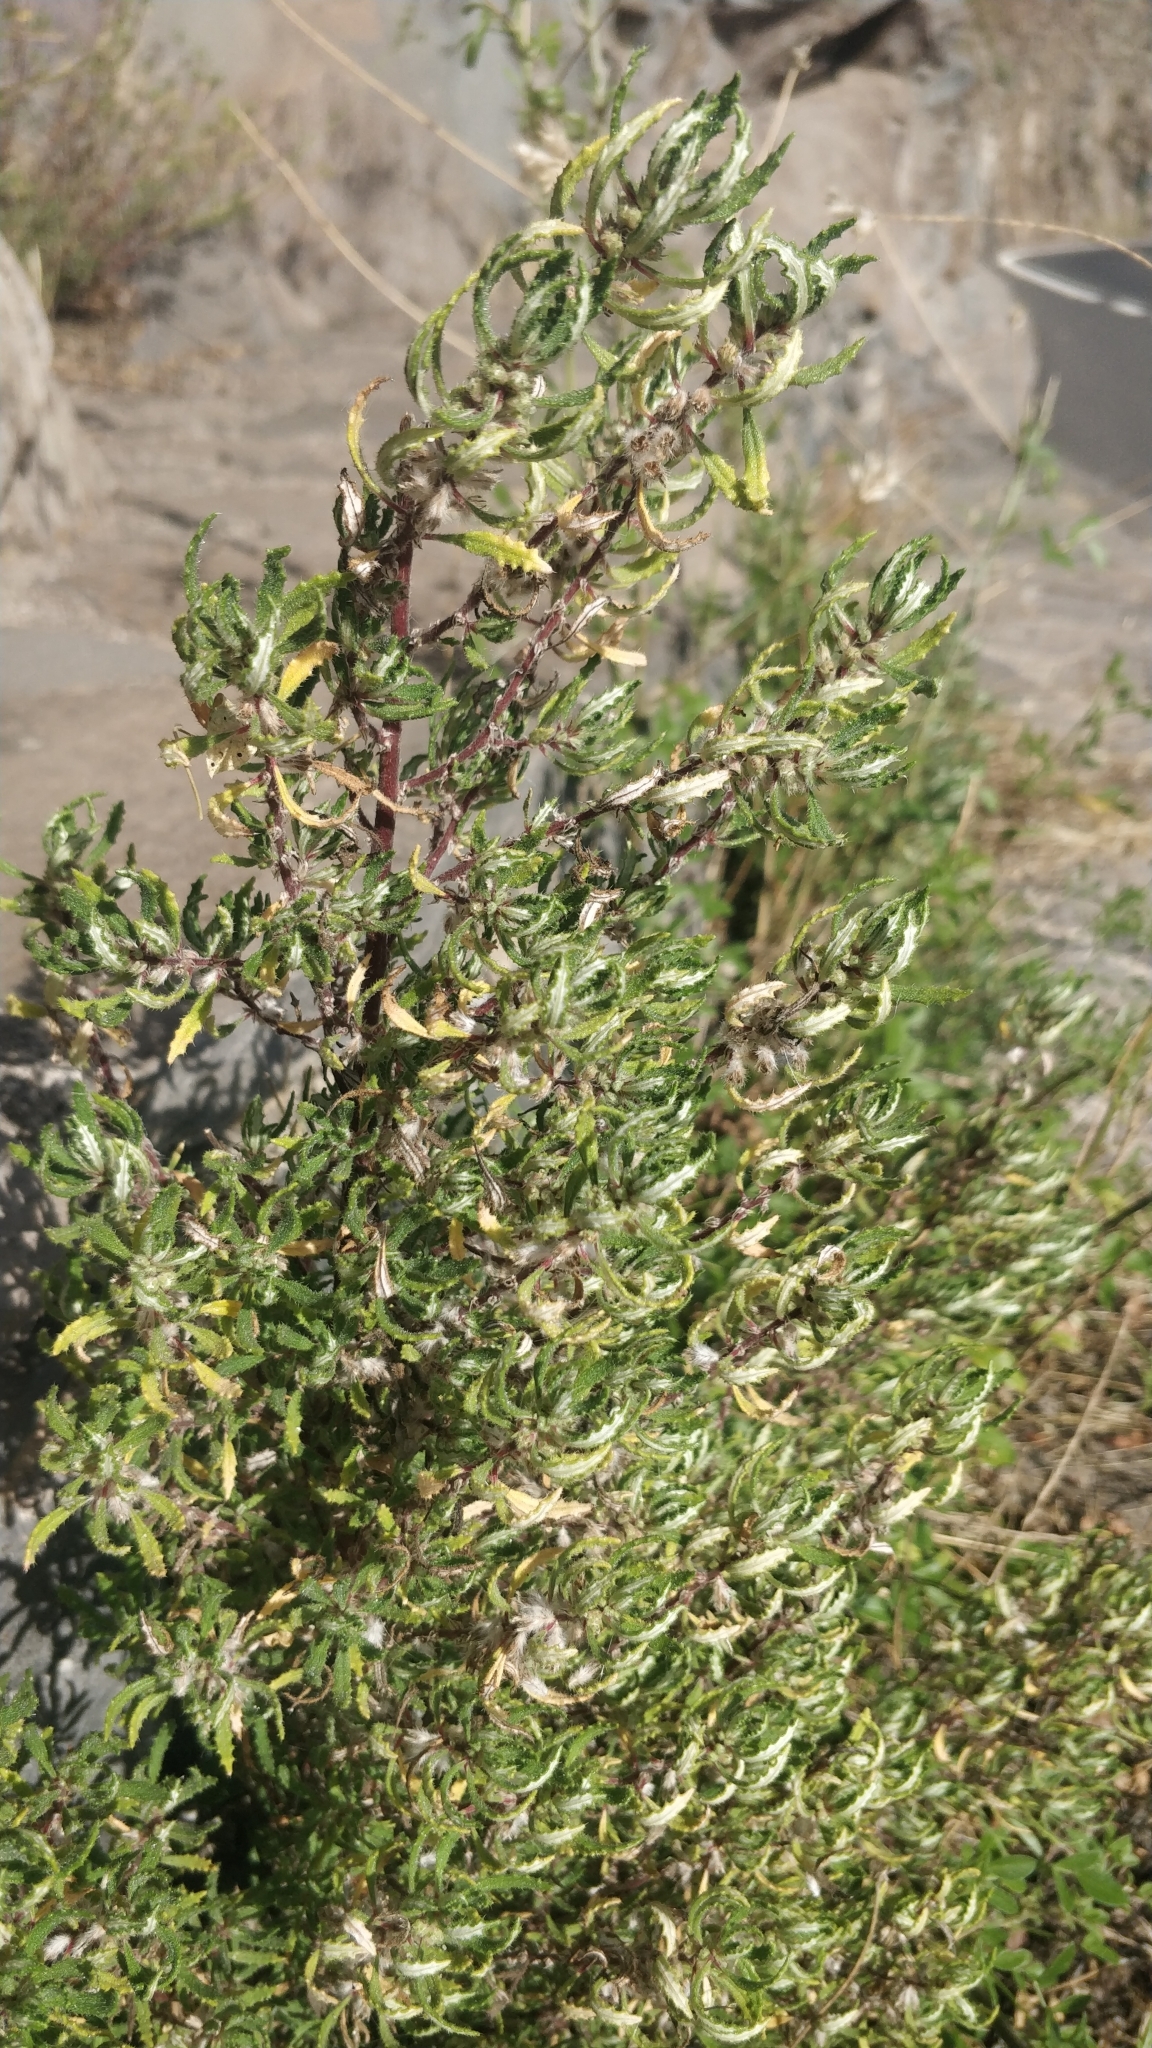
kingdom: Plantae
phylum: Tracheophyta
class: Magnoliopsida
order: Rosales
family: Urticaceae
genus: Forsskaolea
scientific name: Forsskaolea angustifolia
